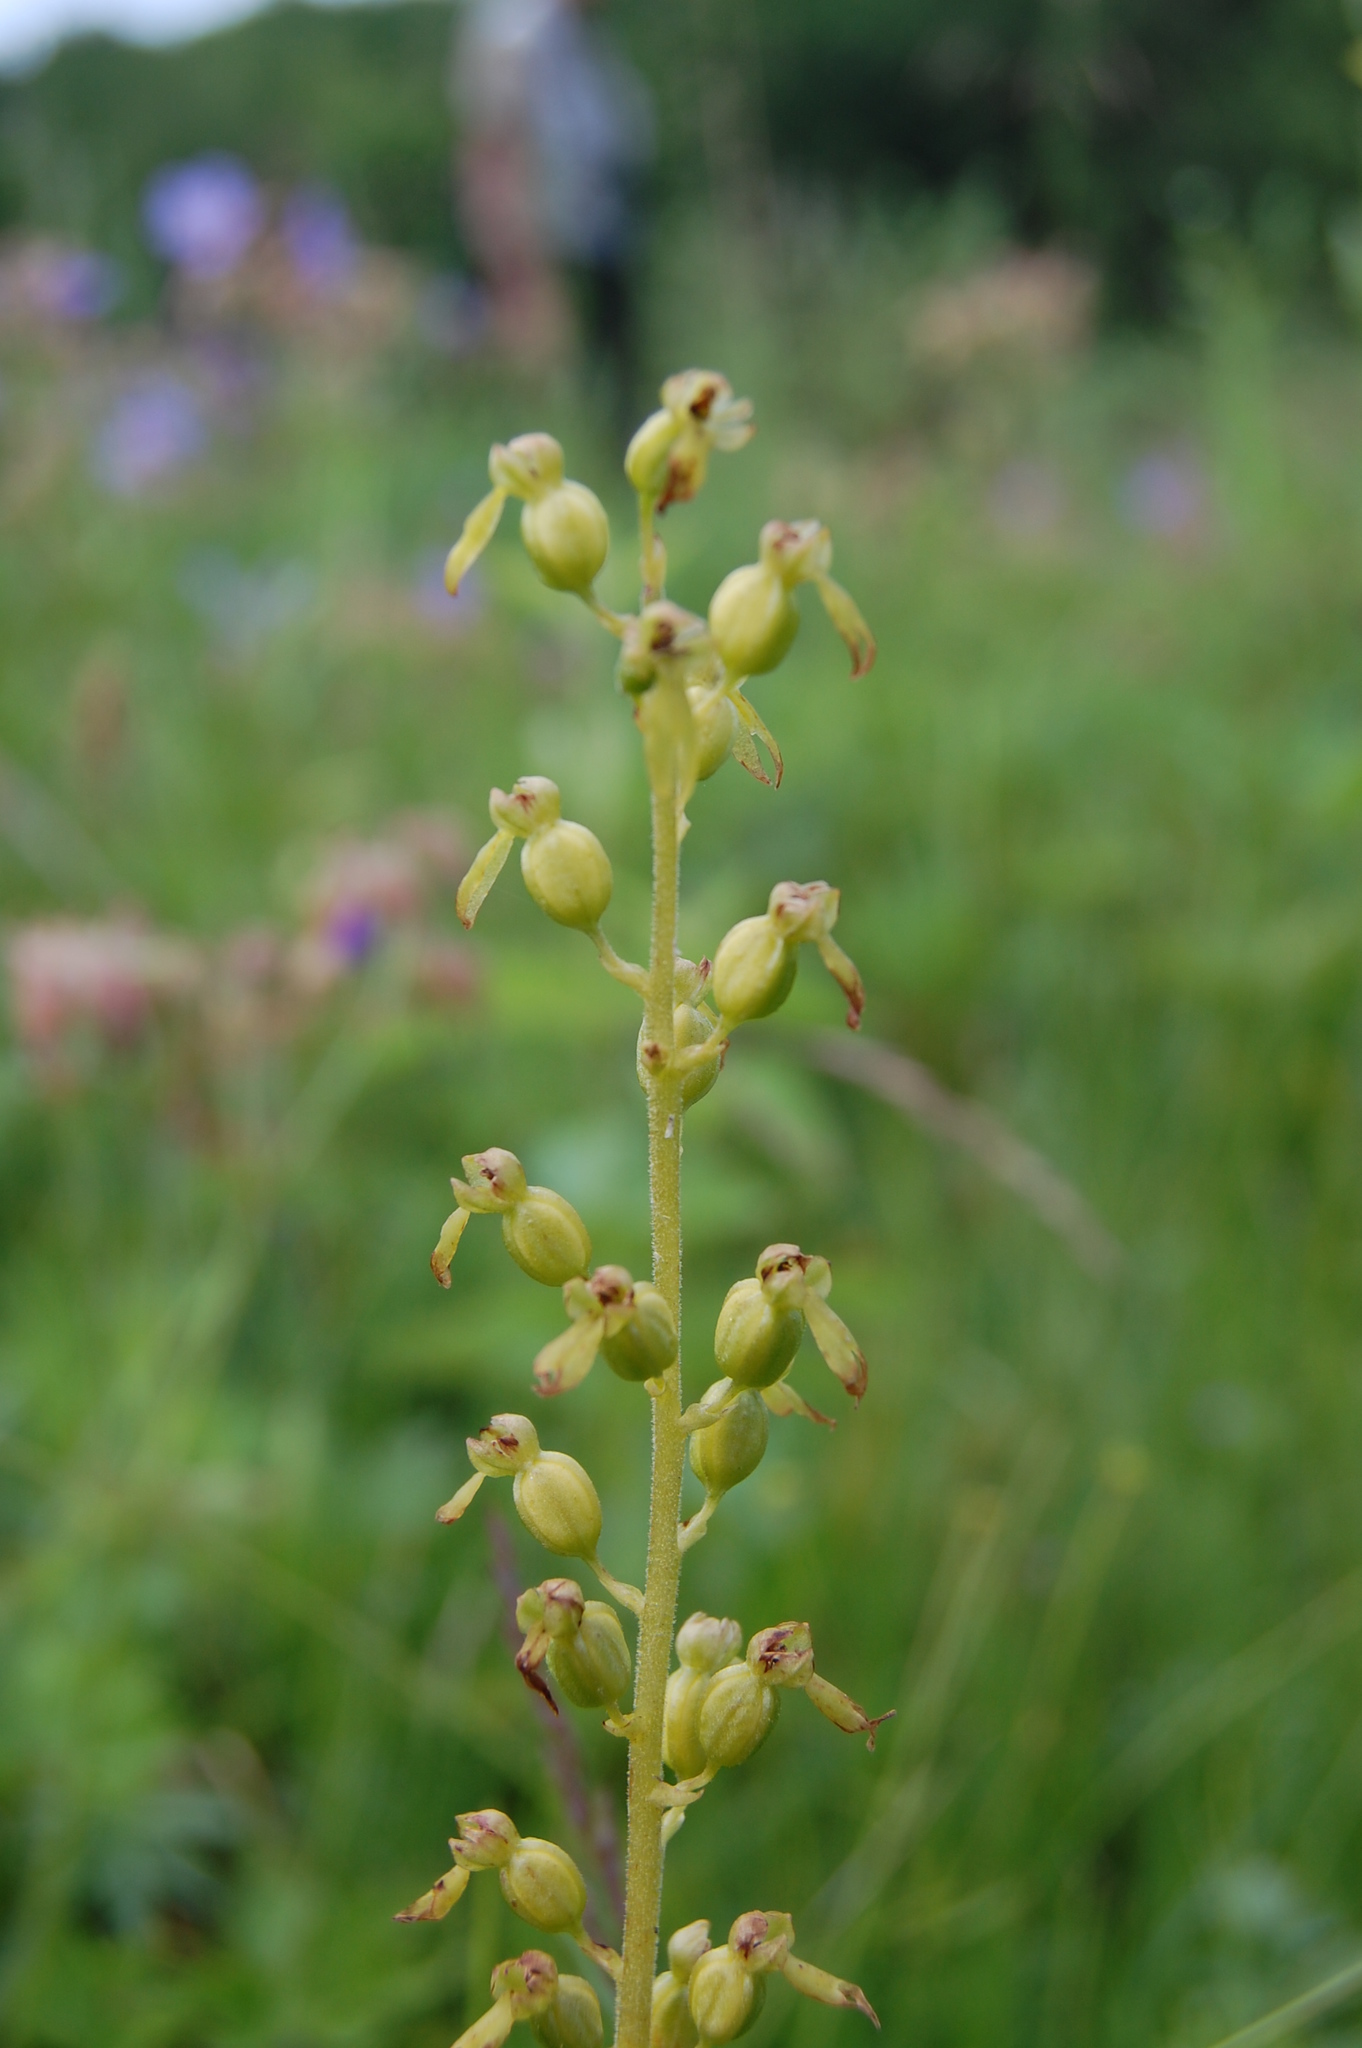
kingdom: Plantae
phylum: Tracheophyta
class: Liliopsida
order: Asparagales
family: Orchidaceae
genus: Neottia
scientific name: Neottia ovata
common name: Common twayblade
